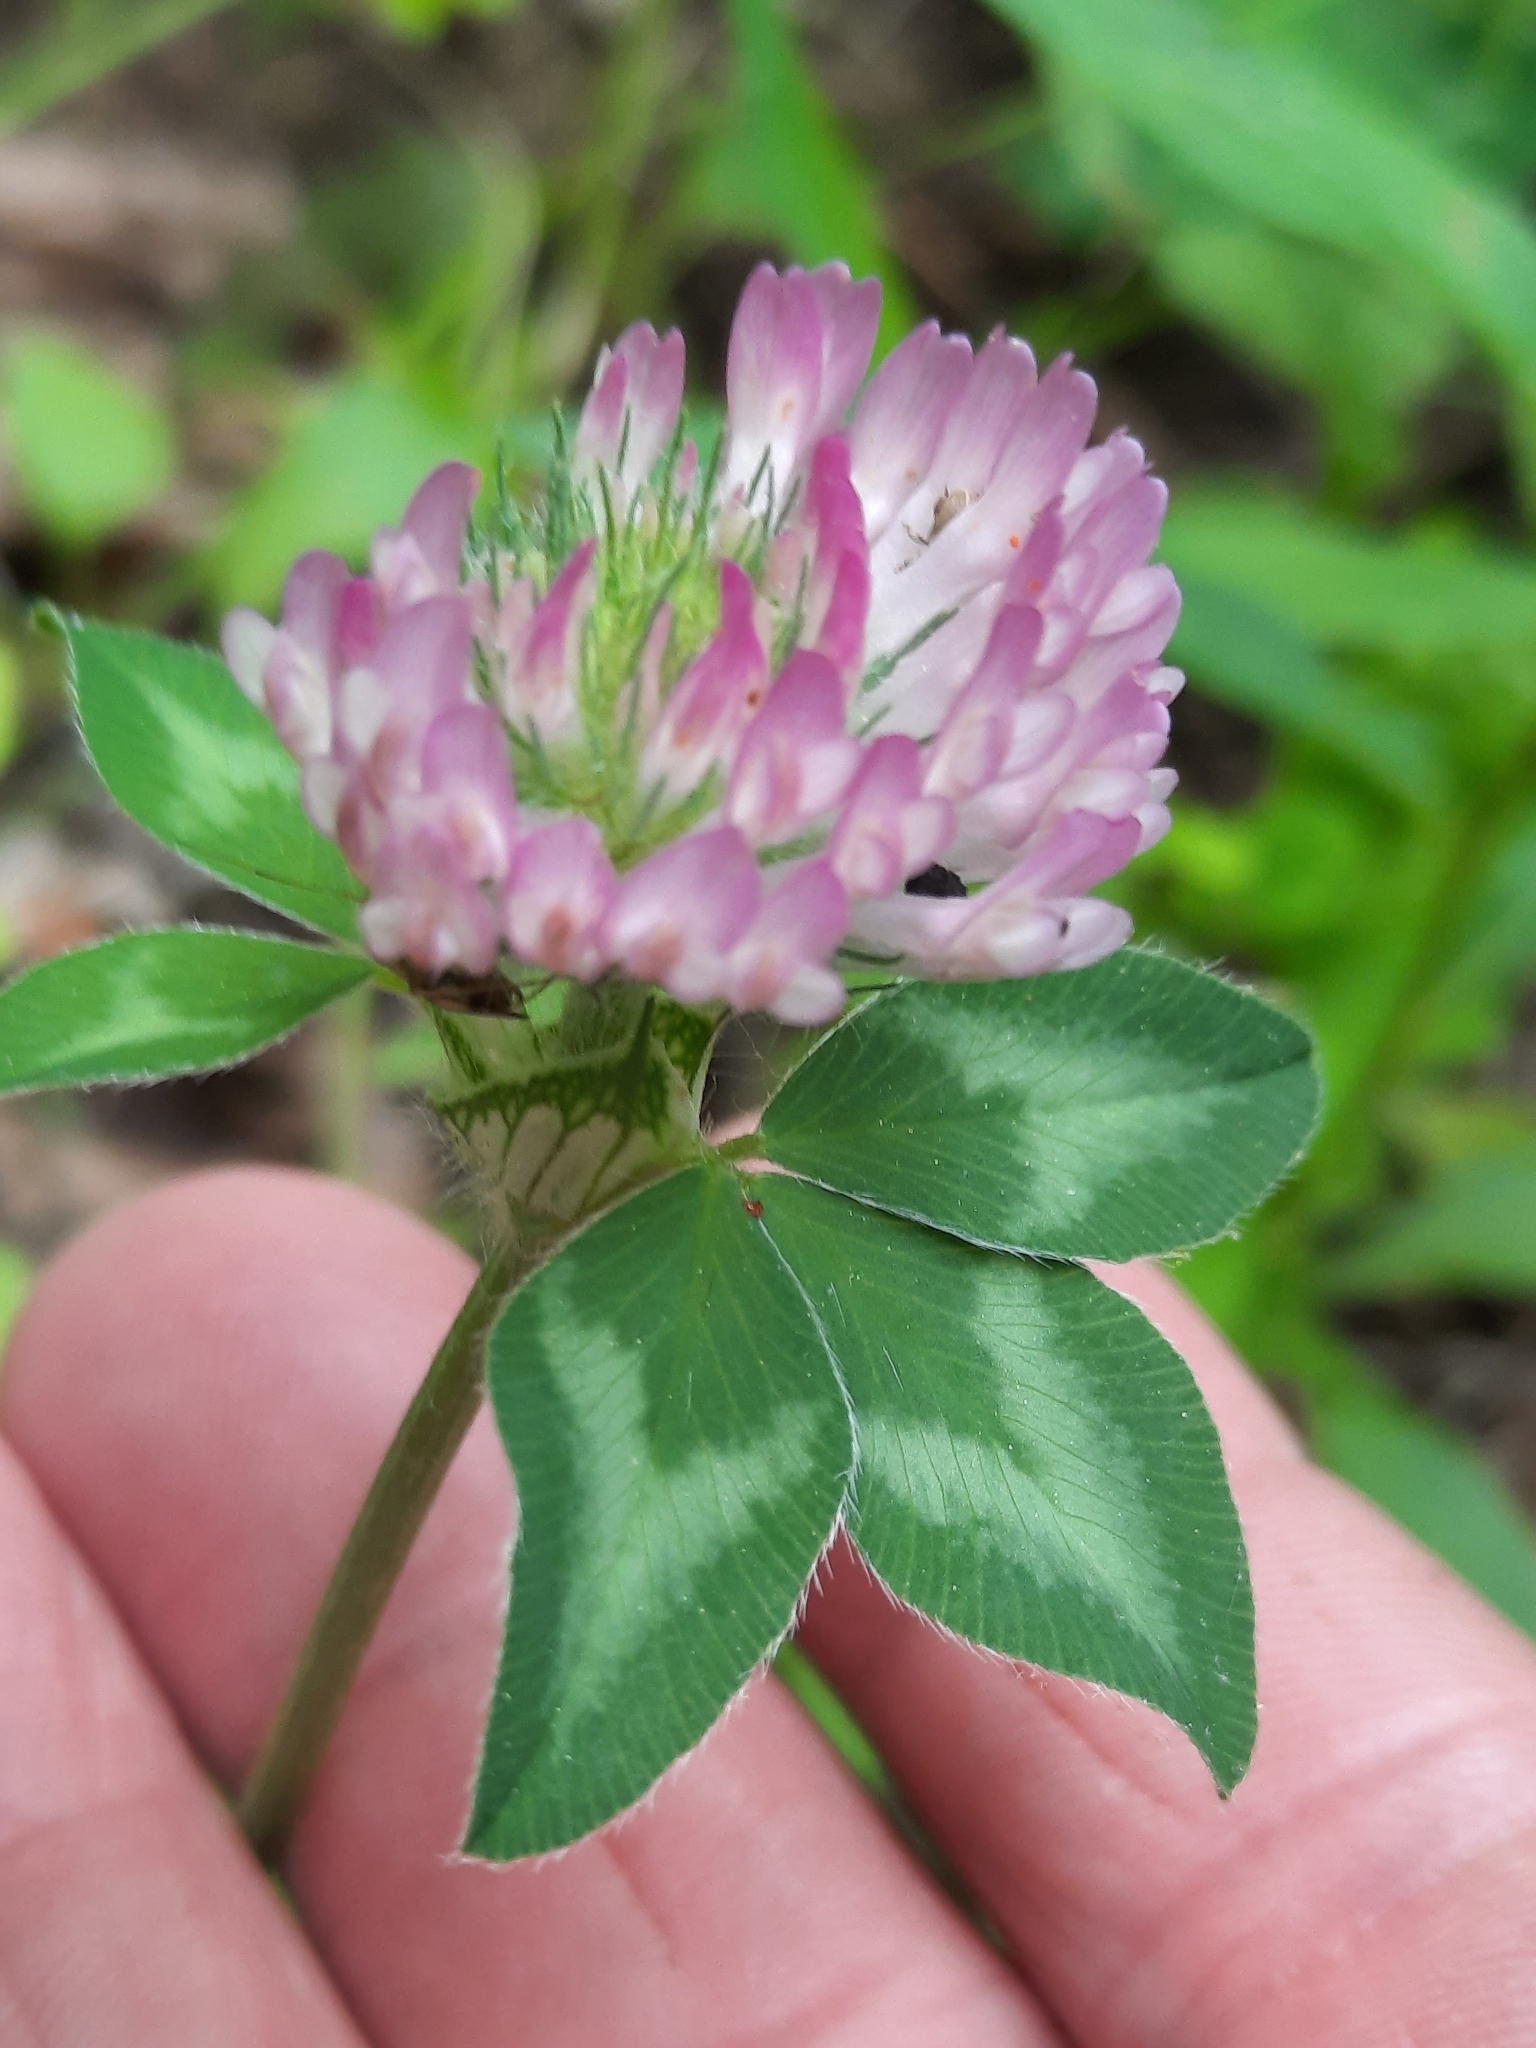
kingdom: Plantae
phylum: Tracheophyta
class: Magnoliopsida
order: Fabales
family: Fabaceae
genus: Trifolium
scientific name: Trifolium pratense
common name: Red clover
